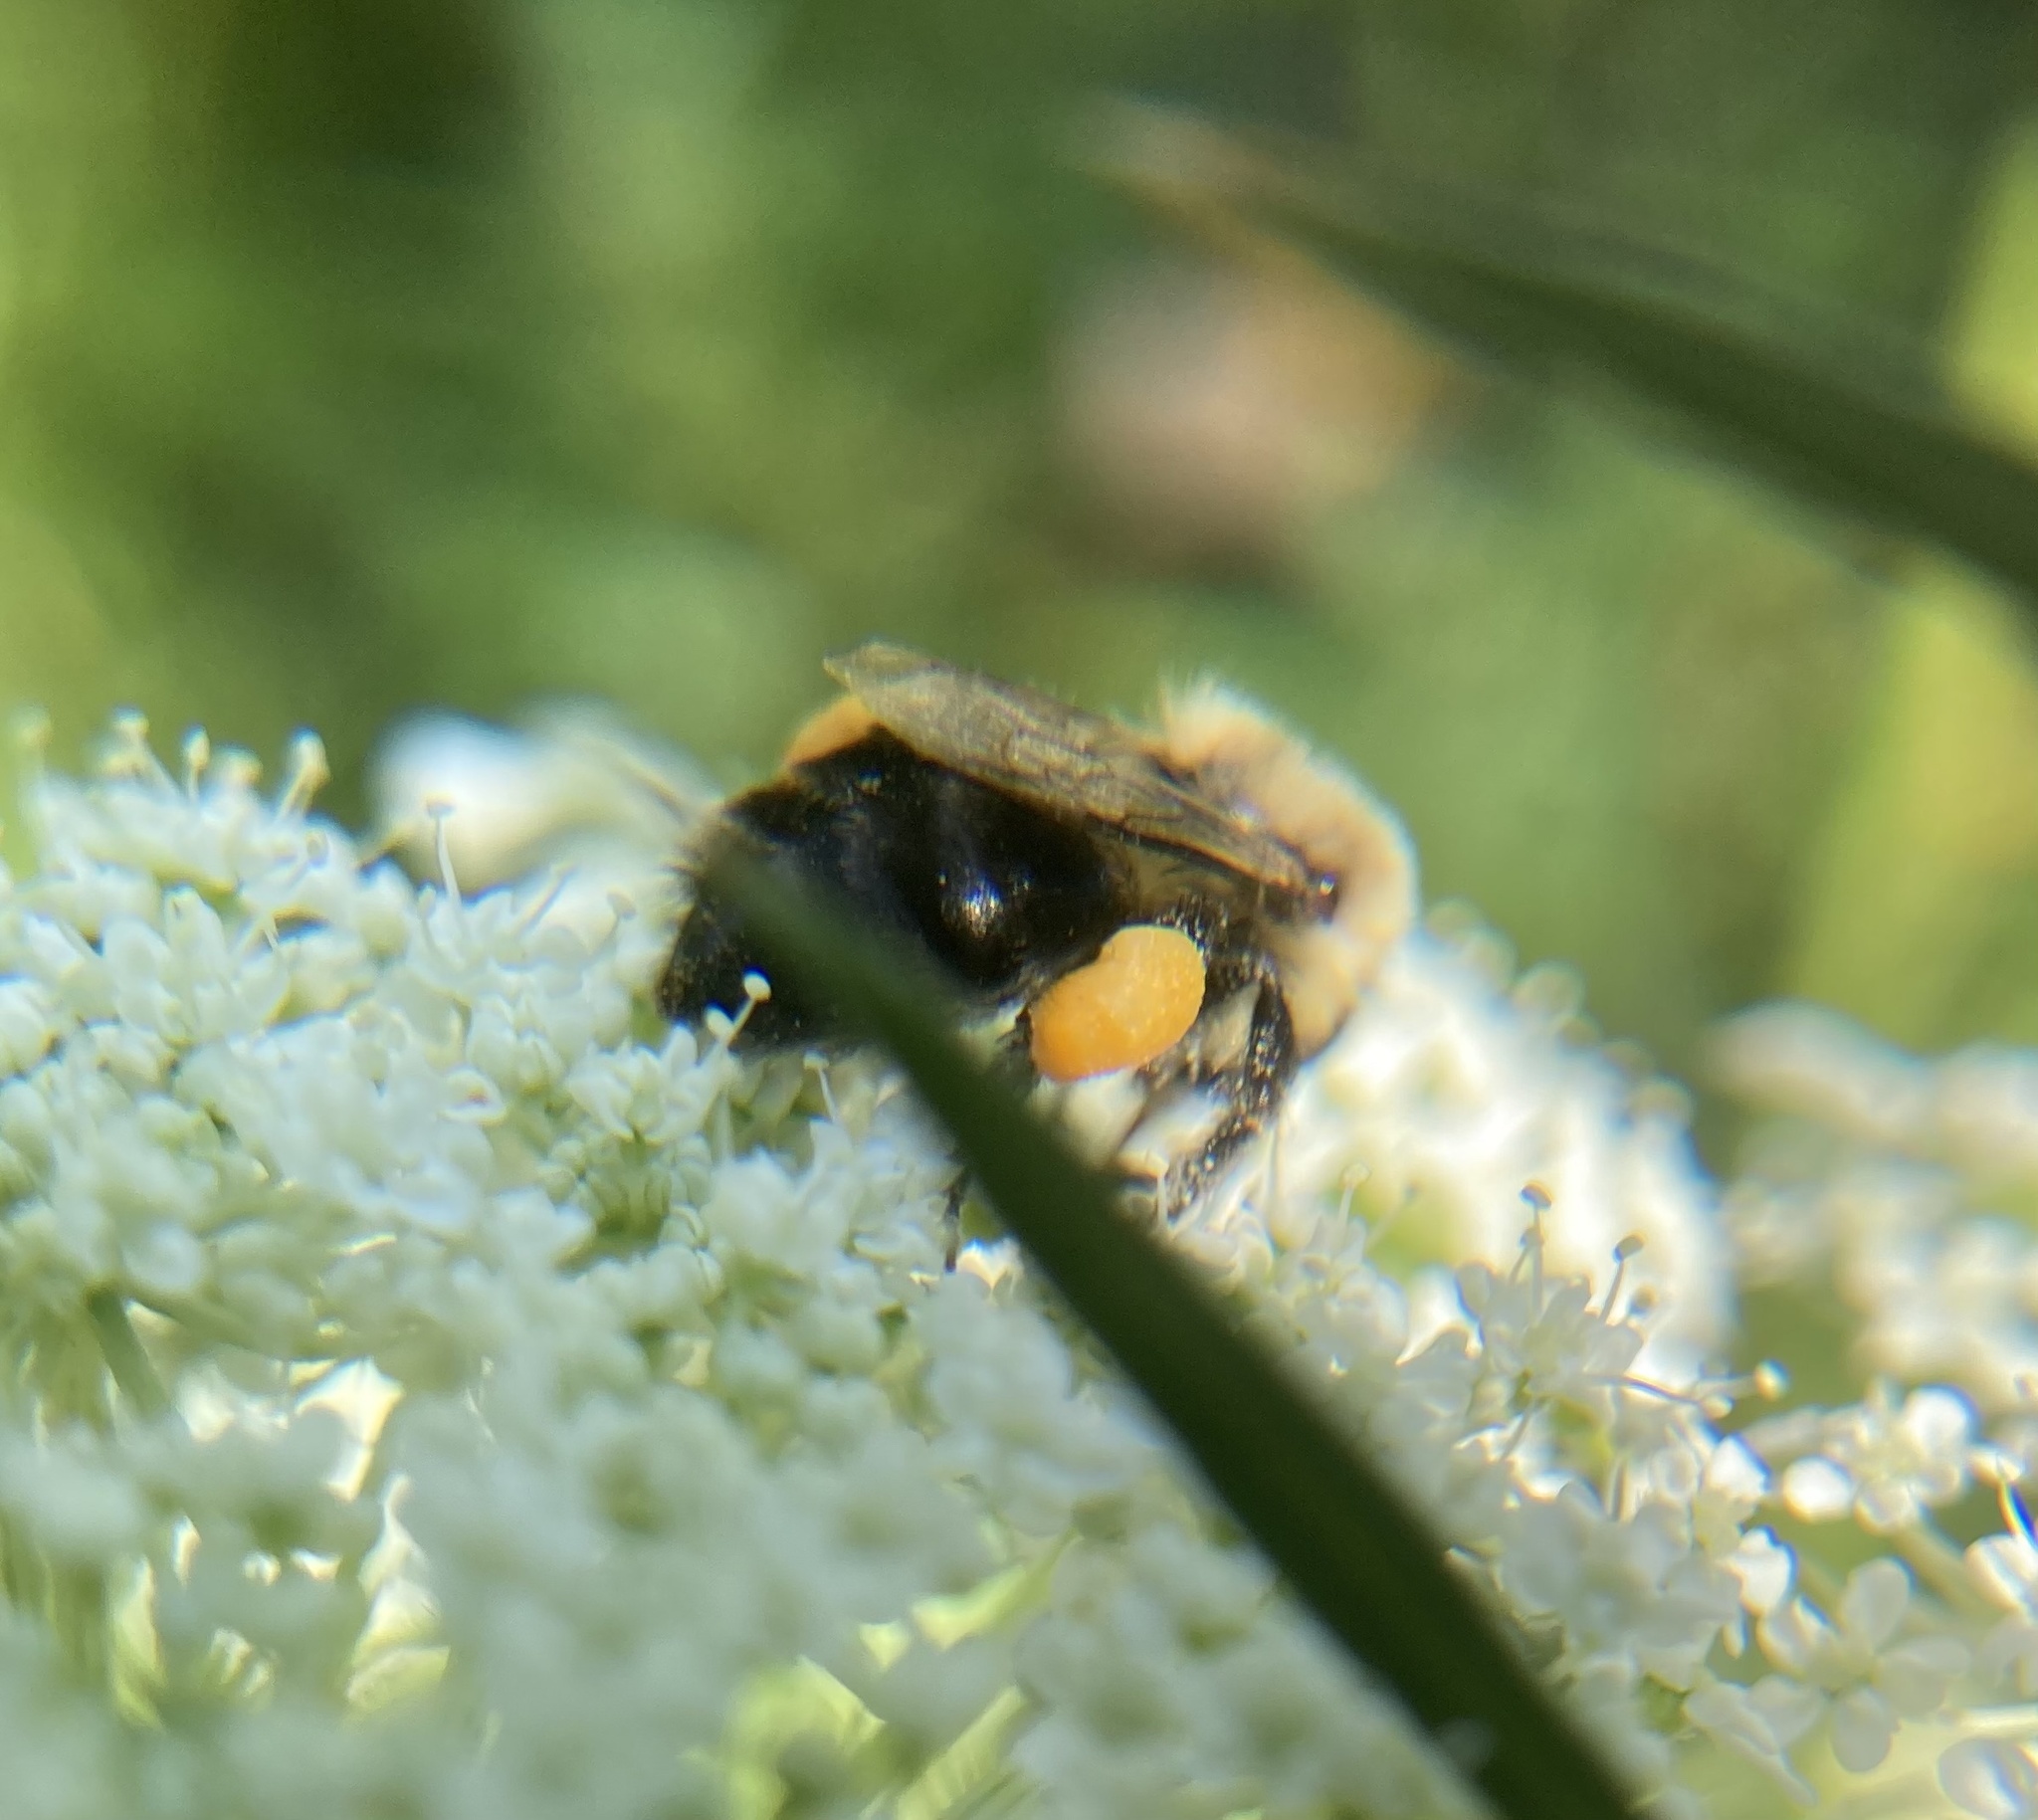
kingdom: Animalia
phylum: Arthropoda
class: Insecta
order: Hymenoptera
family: Apidae
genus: Bombus
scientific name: Bombus impatiens
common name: Common eastern bumble bee
